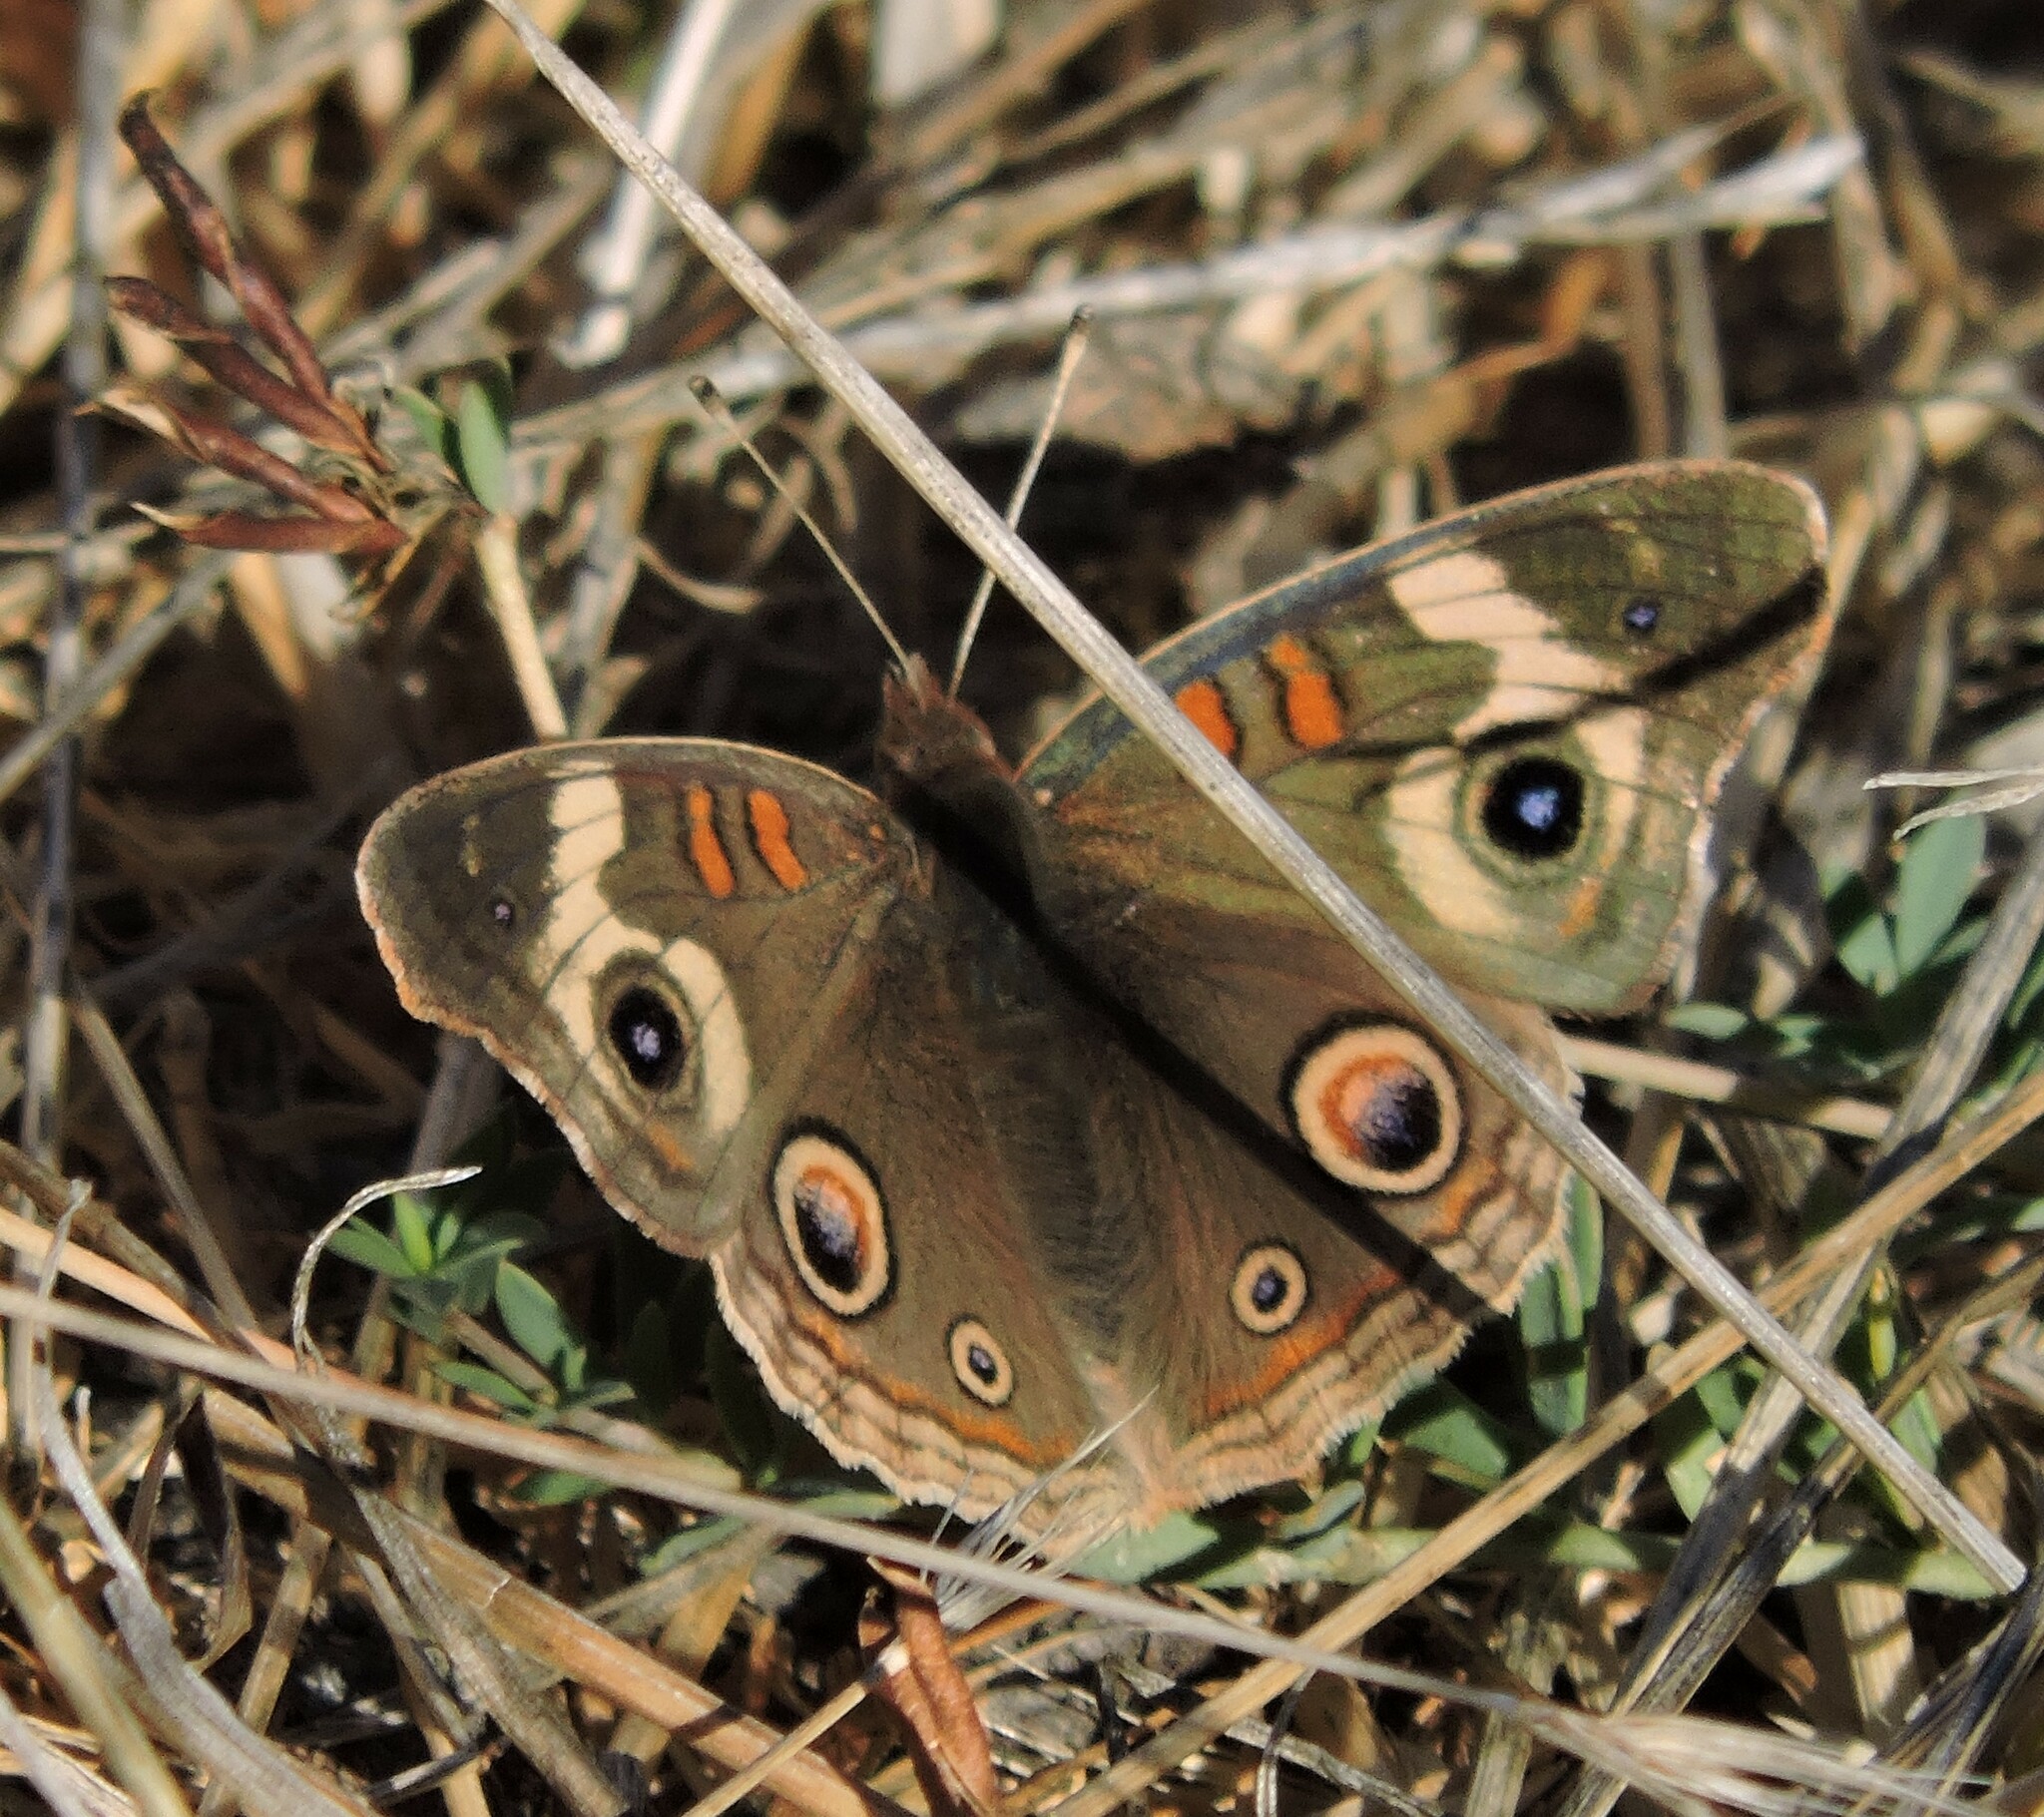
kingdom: Animalia
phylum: Arthropoda
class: Insecta
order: Lepidoptera
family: Nymphalidae
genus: Junonia
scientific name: Junonia grisea
